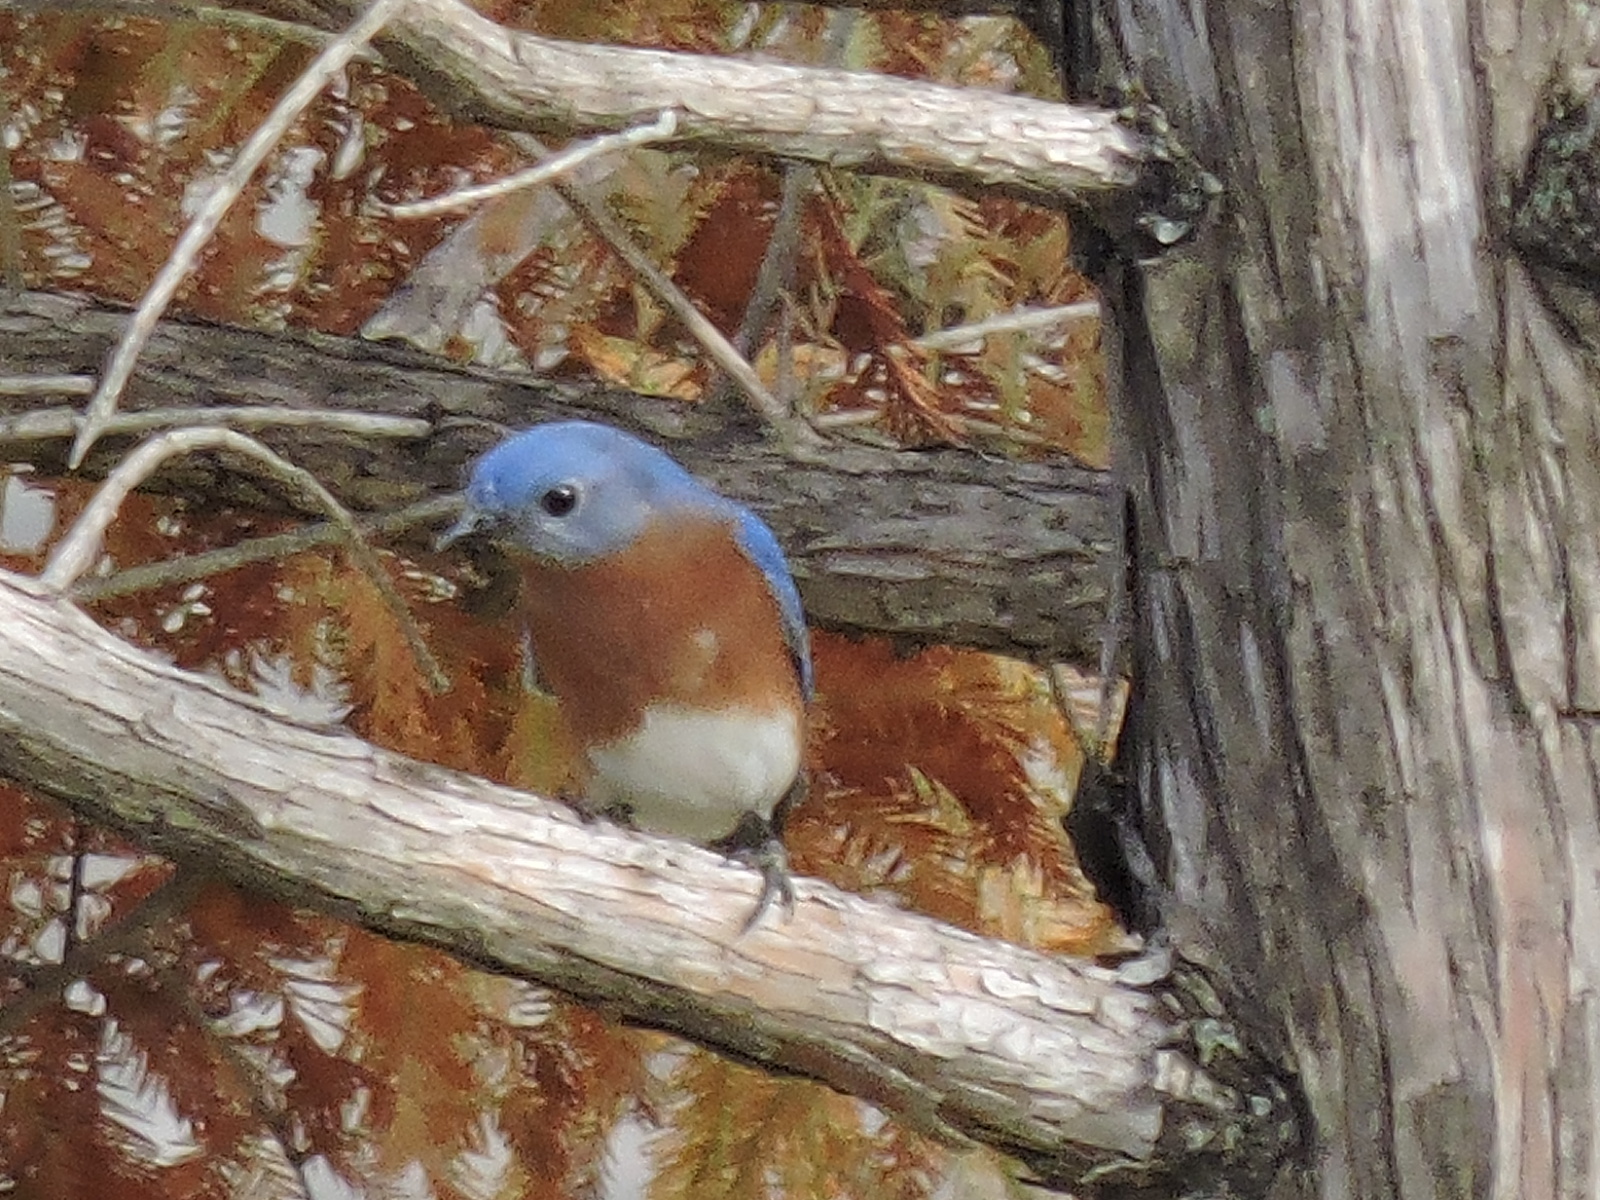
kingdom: Animalia
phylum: Chordata
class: Aves
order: Passeriformes
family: Turdidae
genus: Sialia
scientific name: Sialia sialis
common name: Eastern bluebird
